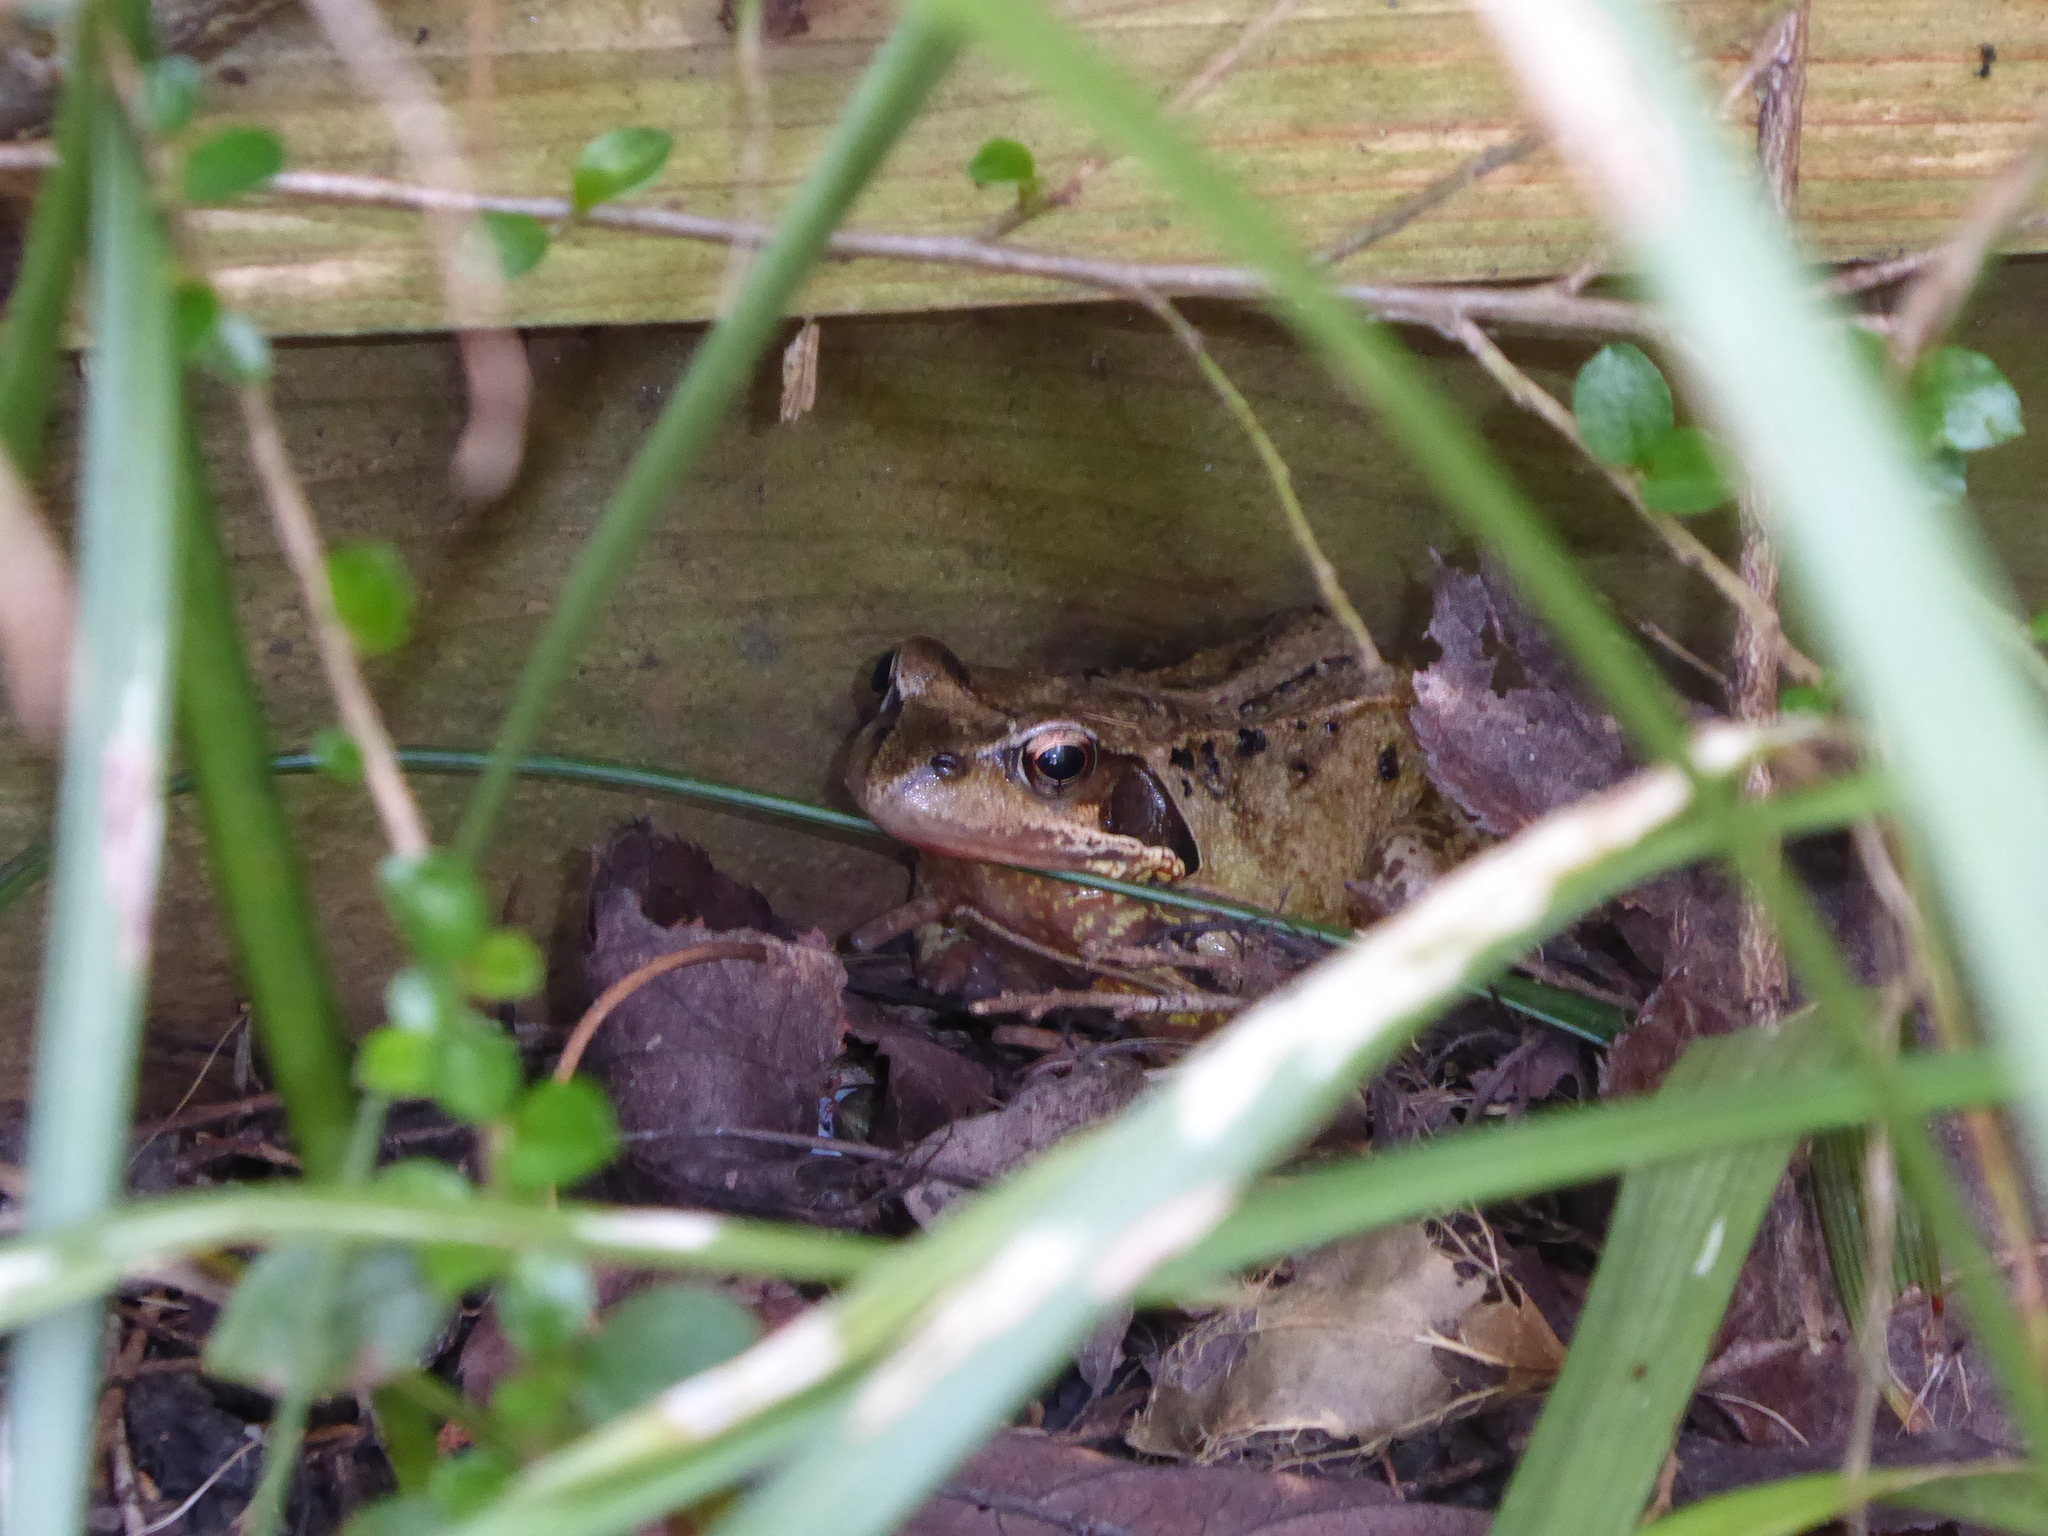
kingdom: Animalia
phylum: Chordata
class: Amphibia
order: Anura
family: Ranidae
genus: Rana
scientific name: Rana temporaria
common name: Common frog
